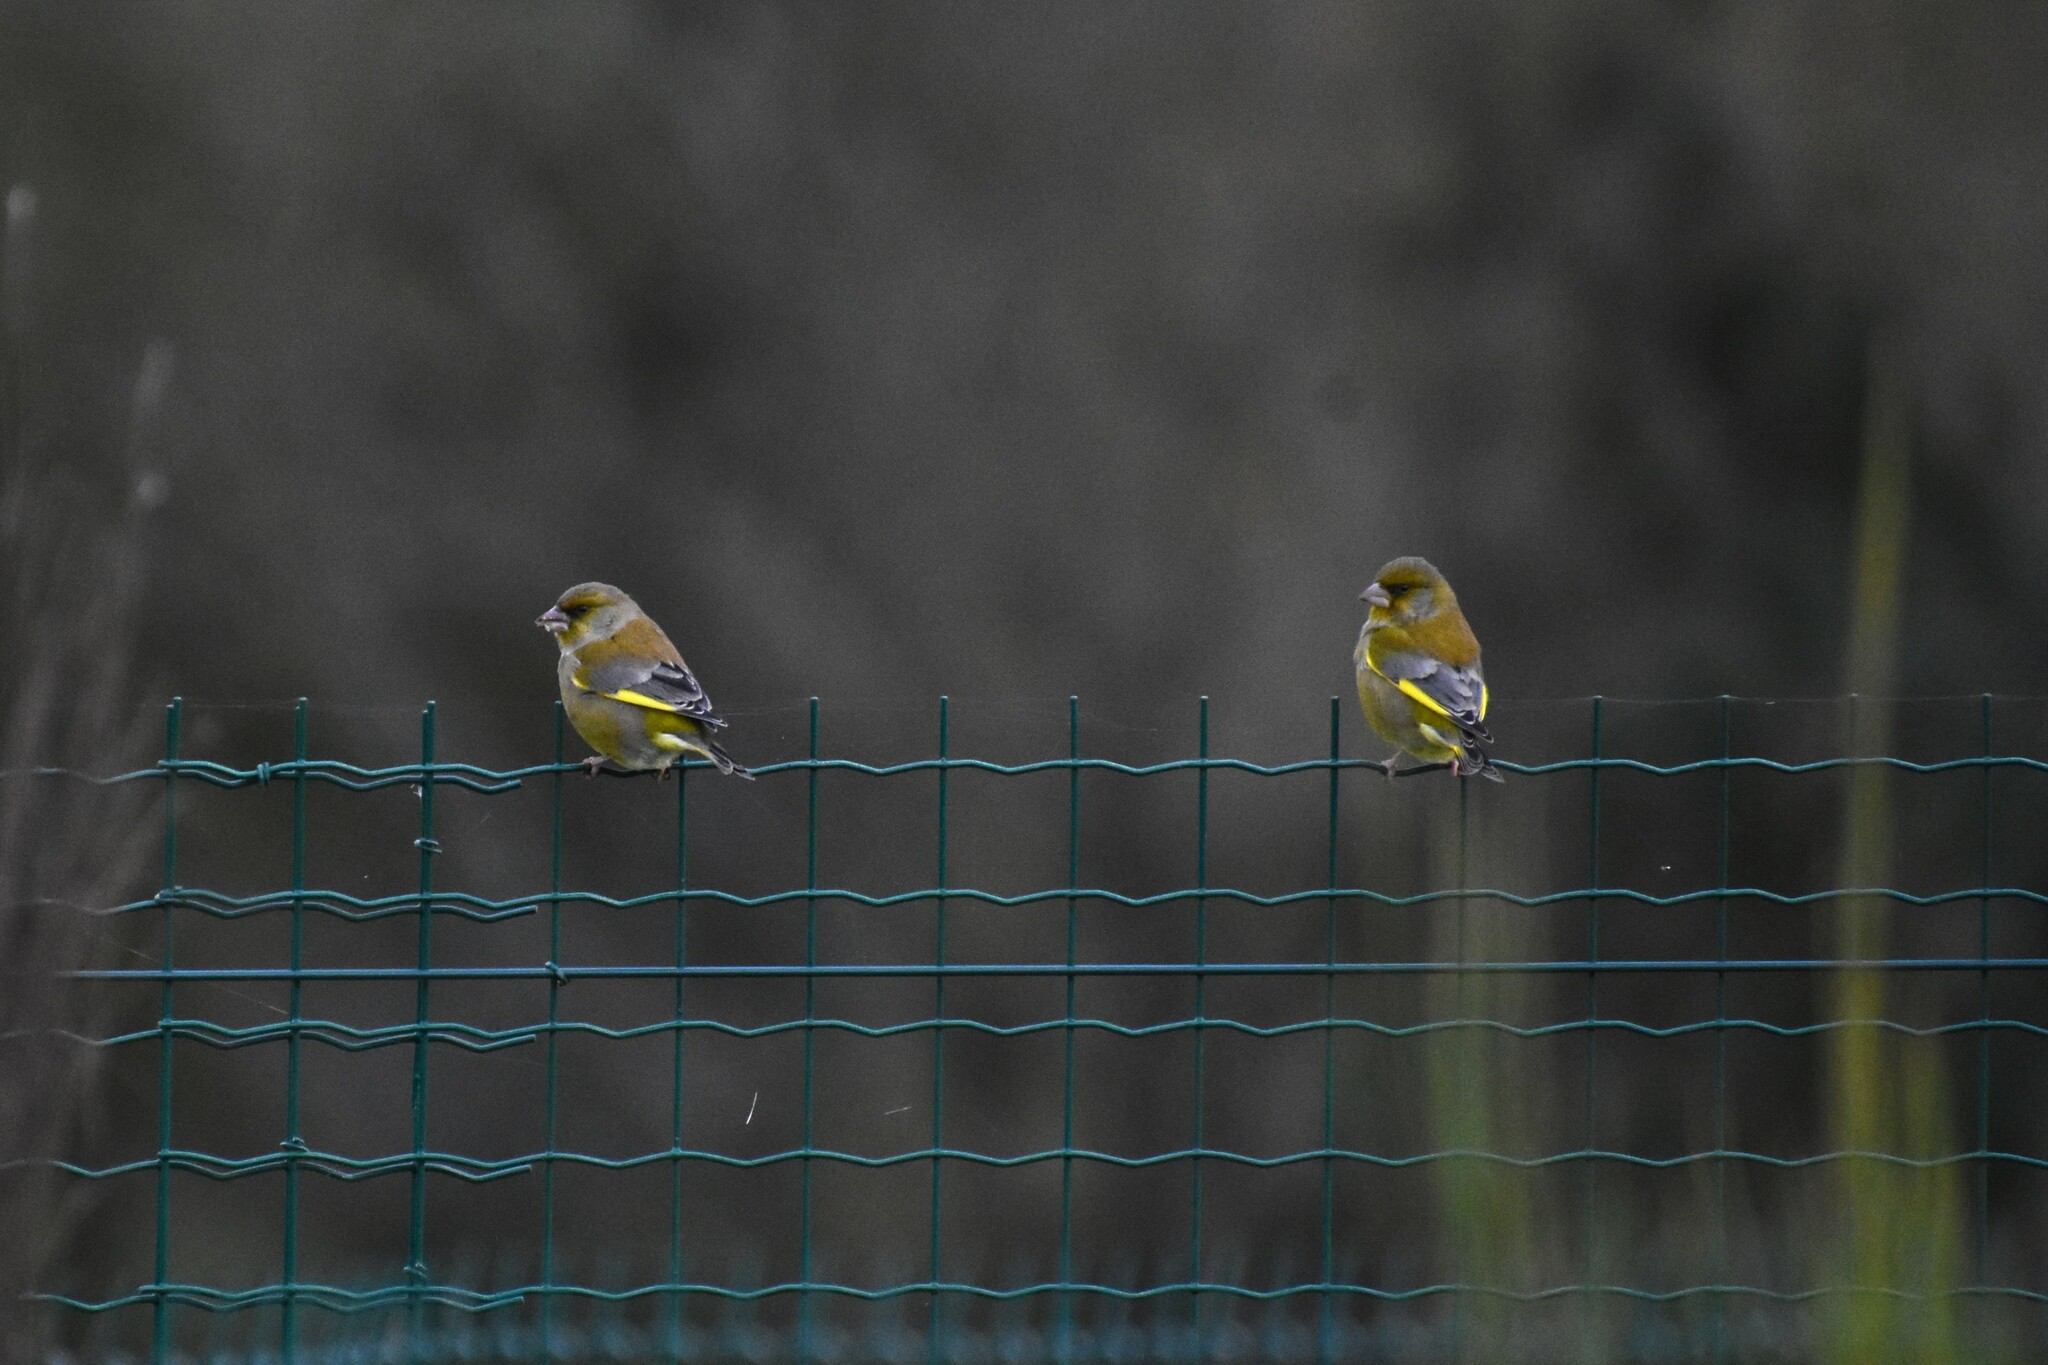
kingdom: Plantae
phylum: Tracheophyta
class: Liliopsida
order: Poales
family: Poaceae
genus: Chloris
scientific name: Chloris chloris
